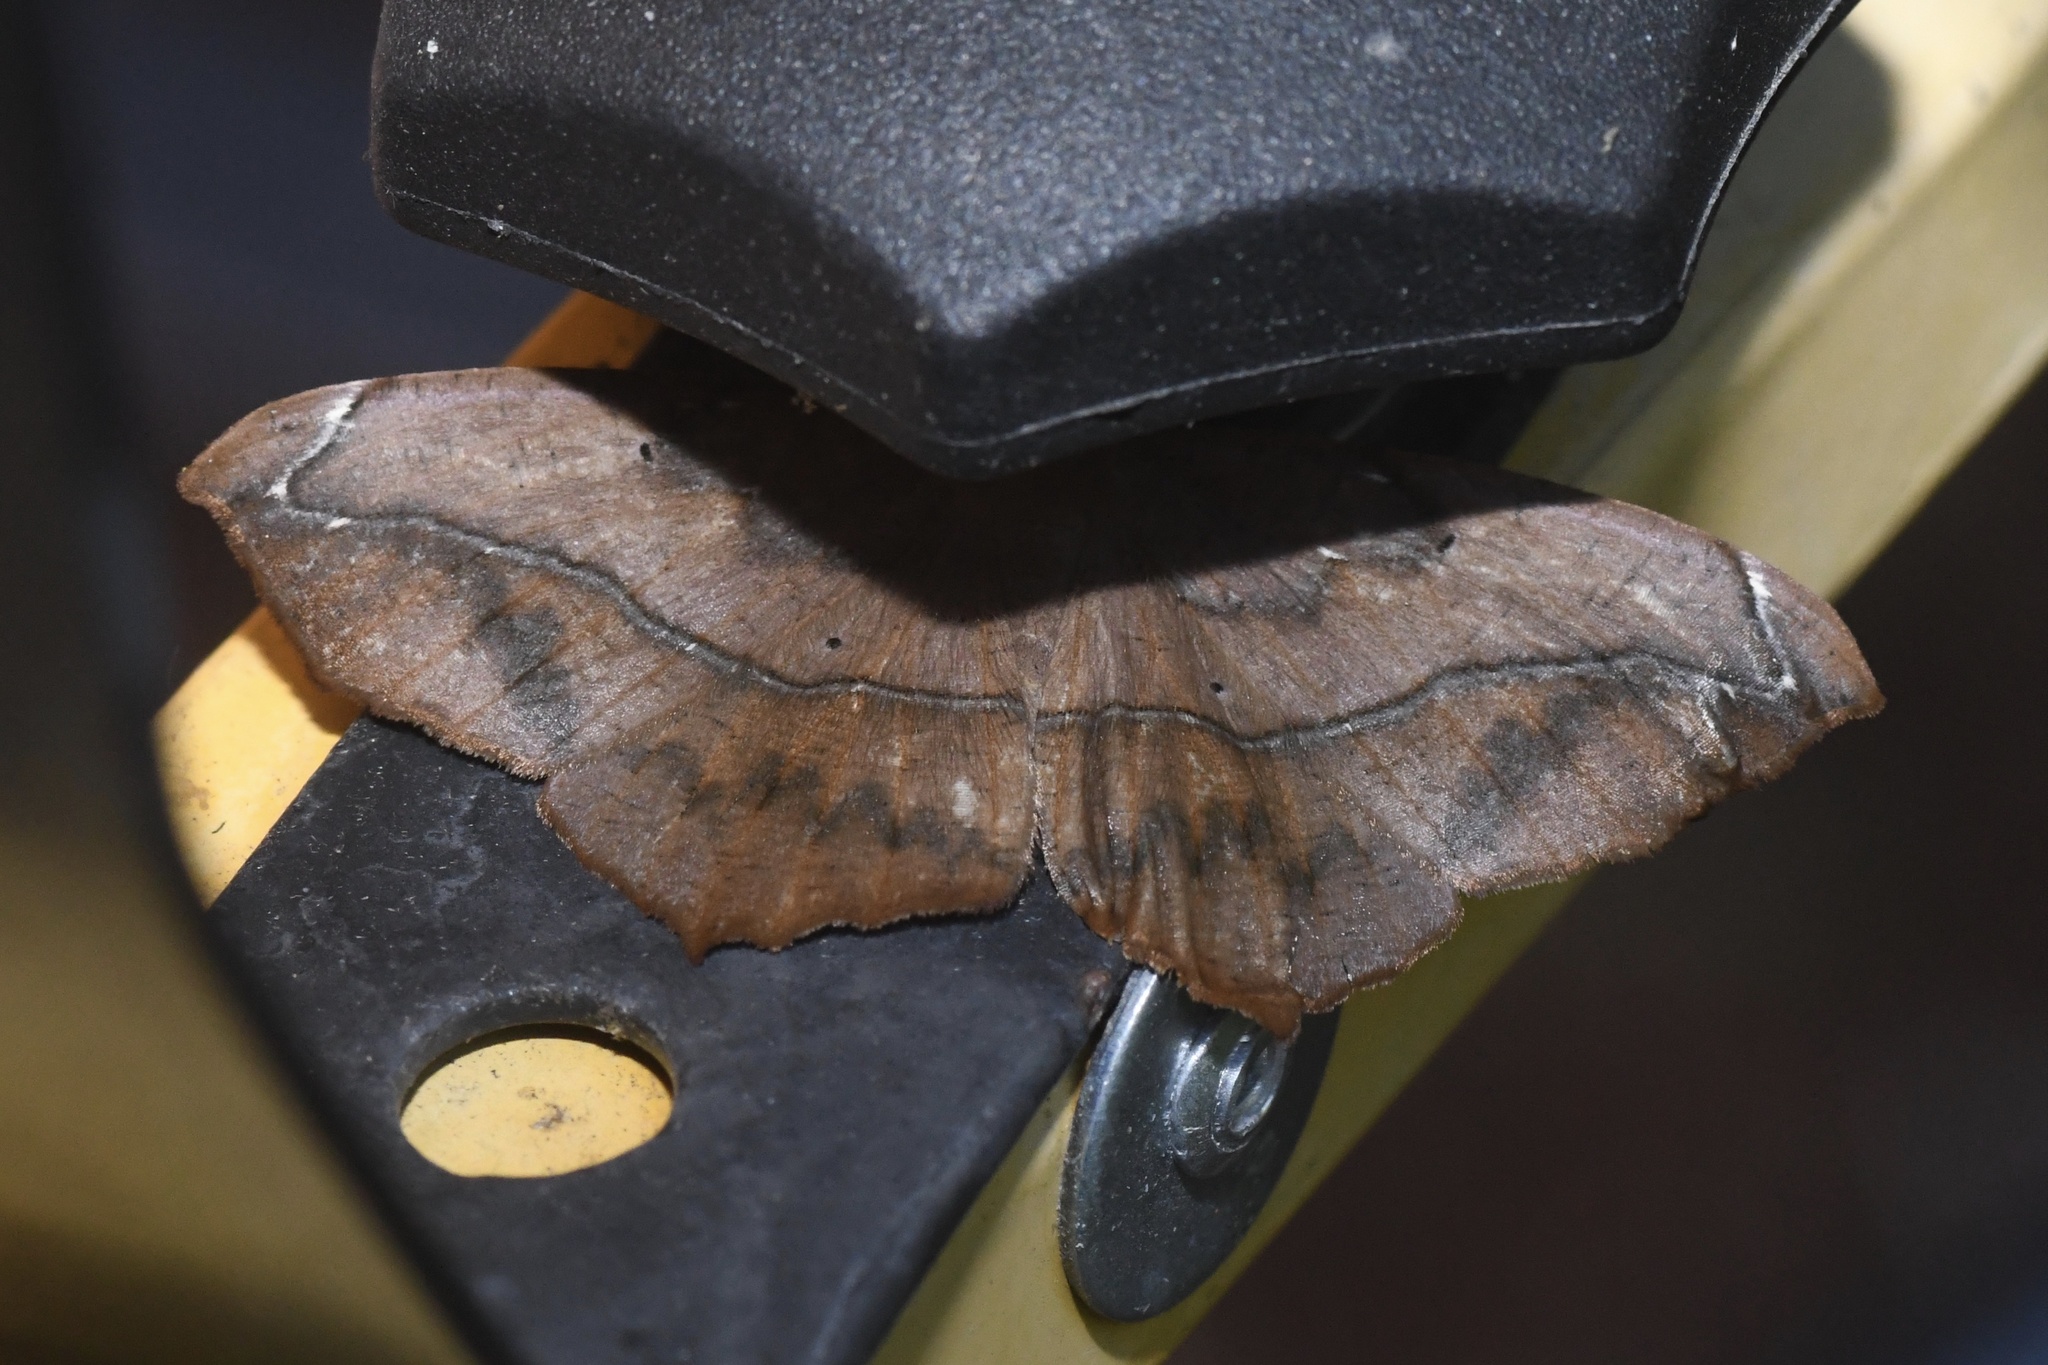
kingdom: Animalia
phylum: Arthropoda
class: Insecta
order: Lepidoptera
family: Geometridae
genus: Prochoerodes
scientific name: Prochoerodes lineola
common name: Large maple spanworm
